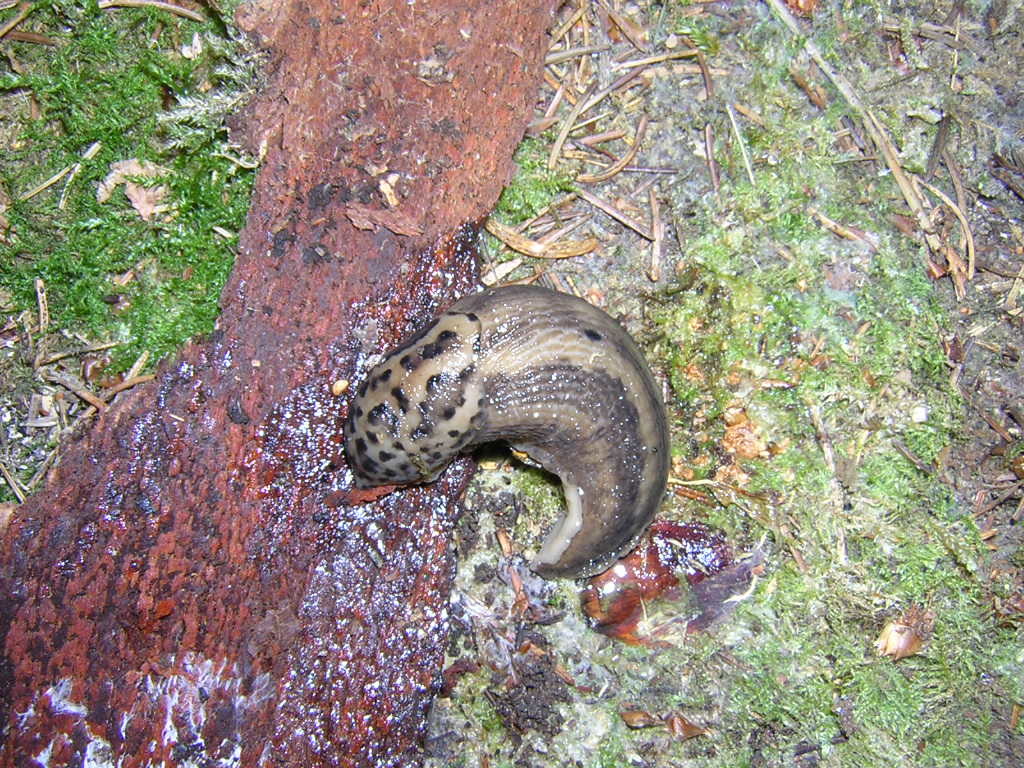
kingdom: Animalia
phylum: Mollusca
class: Gastropoda
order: Stylommatophora
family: Limacidae
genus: Limax
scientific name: Limax maximus
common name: Great grey slug
